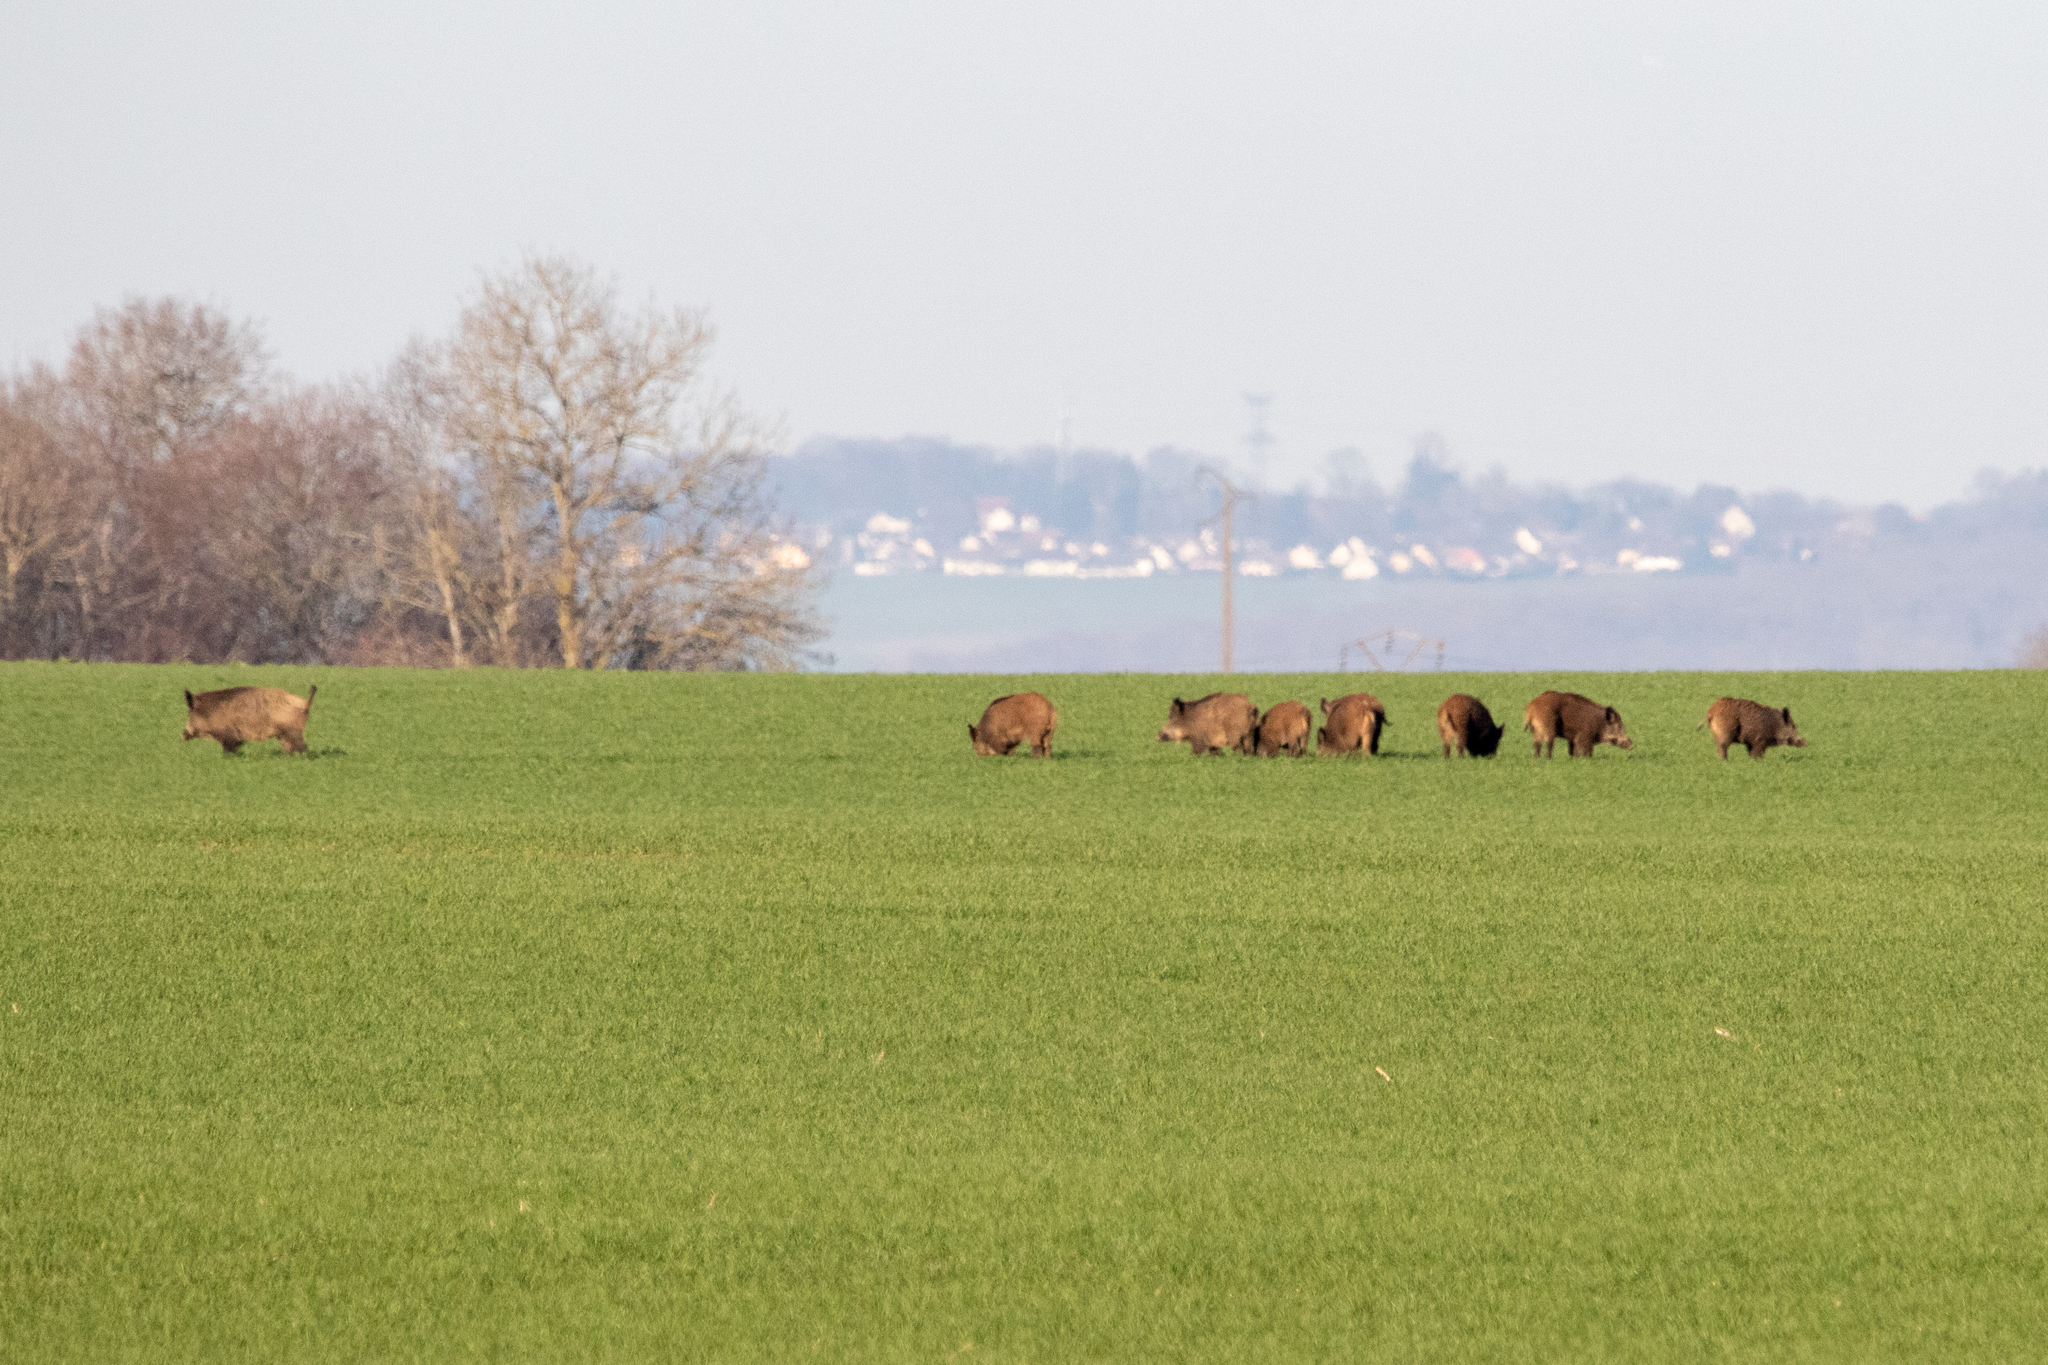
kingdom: Animalia
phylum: Chordata
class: Mammalia
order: Artiodactyla
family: Suidae
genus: Sus
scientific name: Sus scrofa
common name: Wild boar
